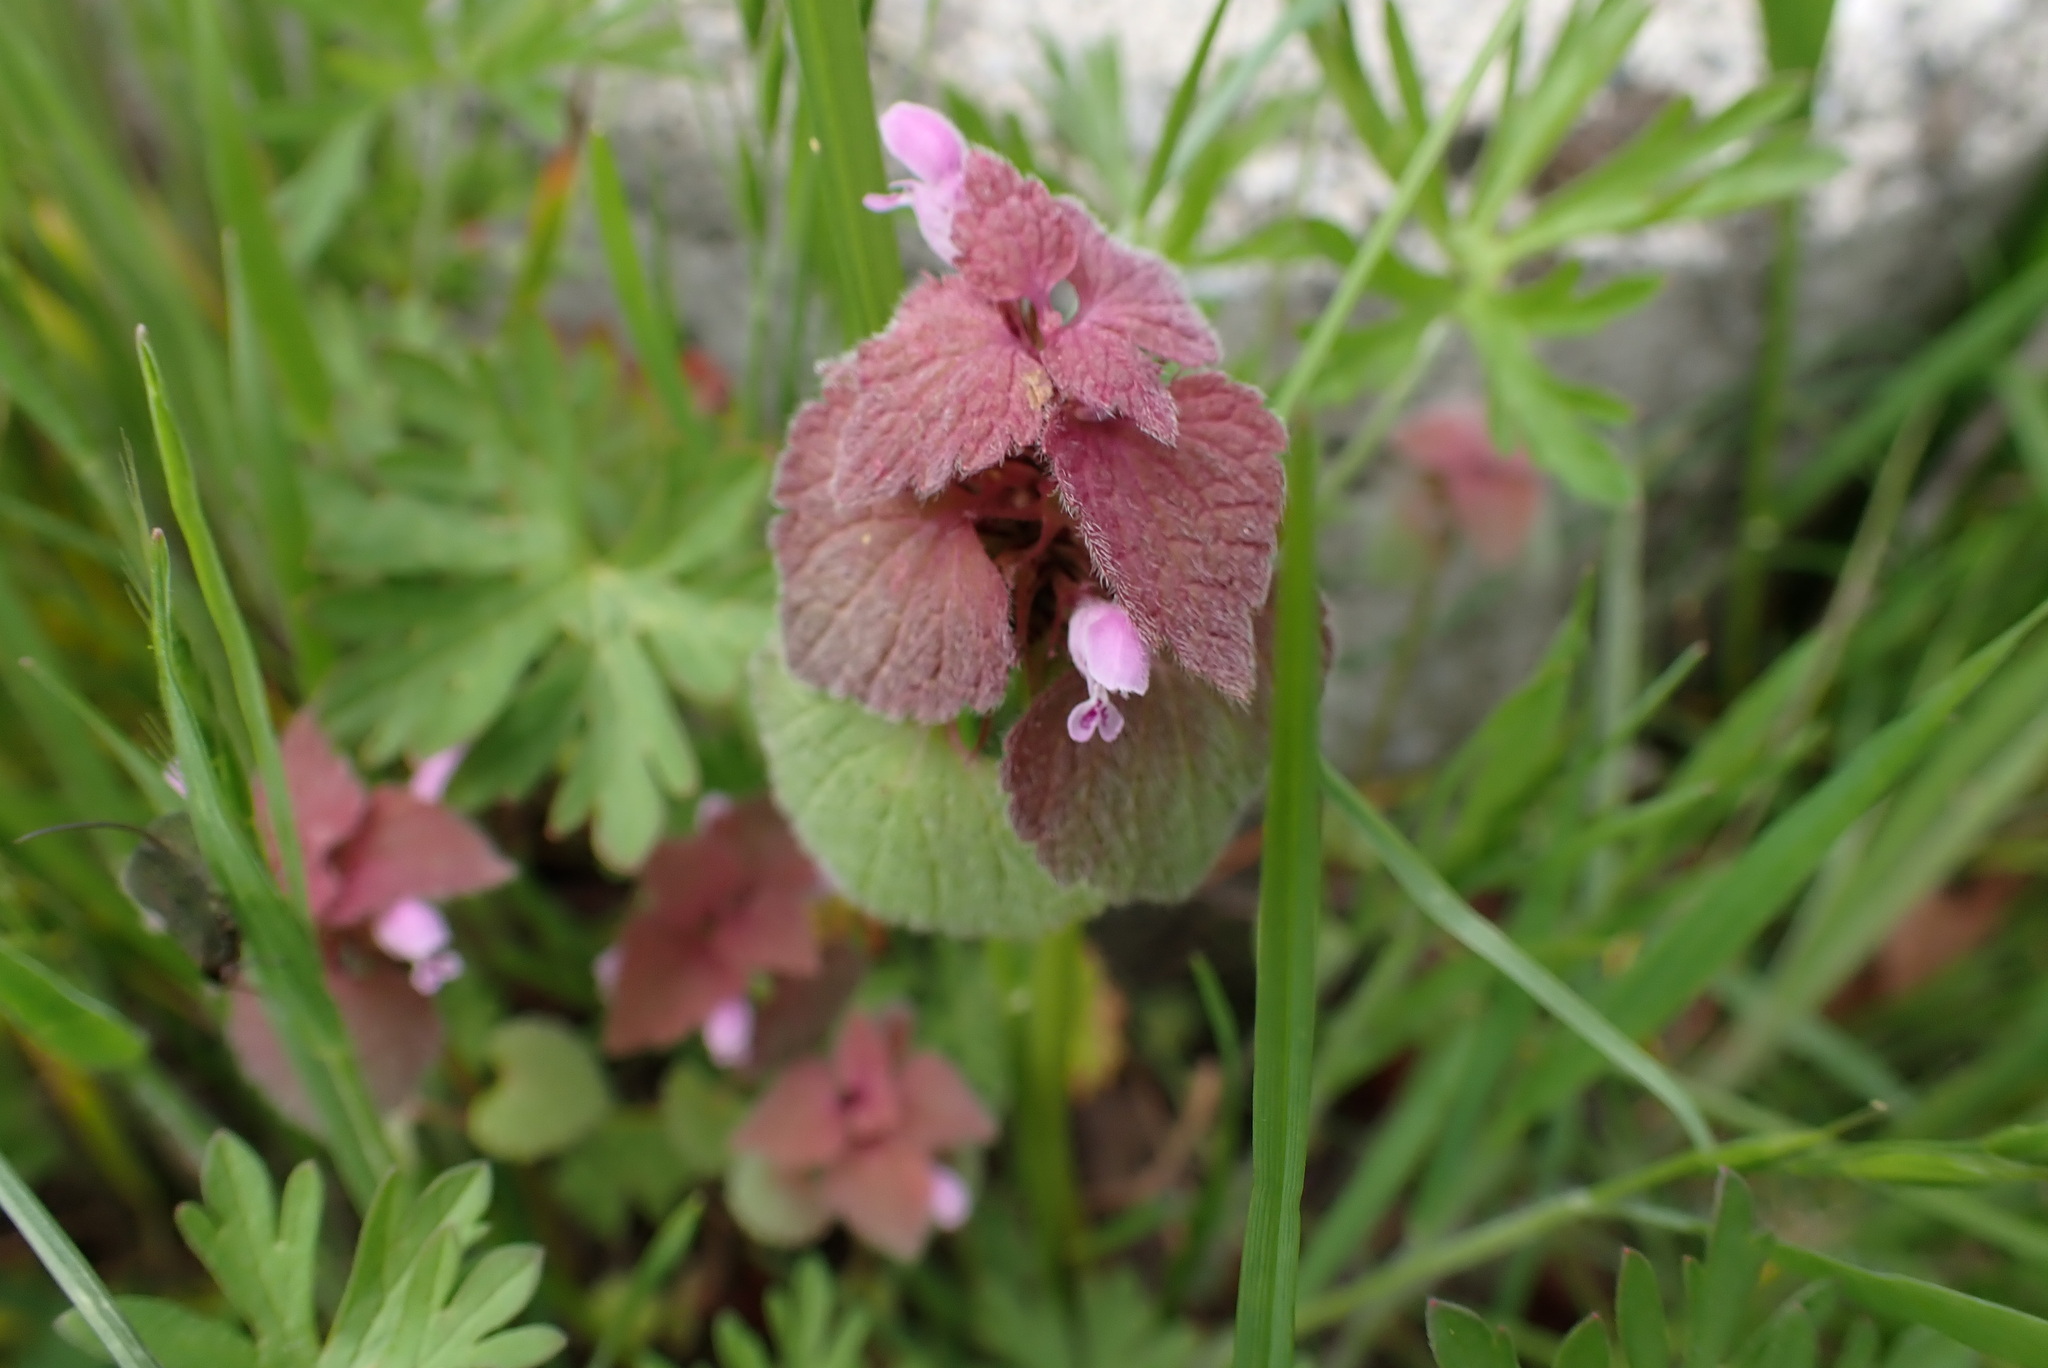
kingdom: Plantae
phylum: Tracheophyta
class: Magnoliopsida
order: Lamiales
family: Lamiaceae
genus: Lamium
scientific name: Lamium purpureum
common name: Red dead-nettle
